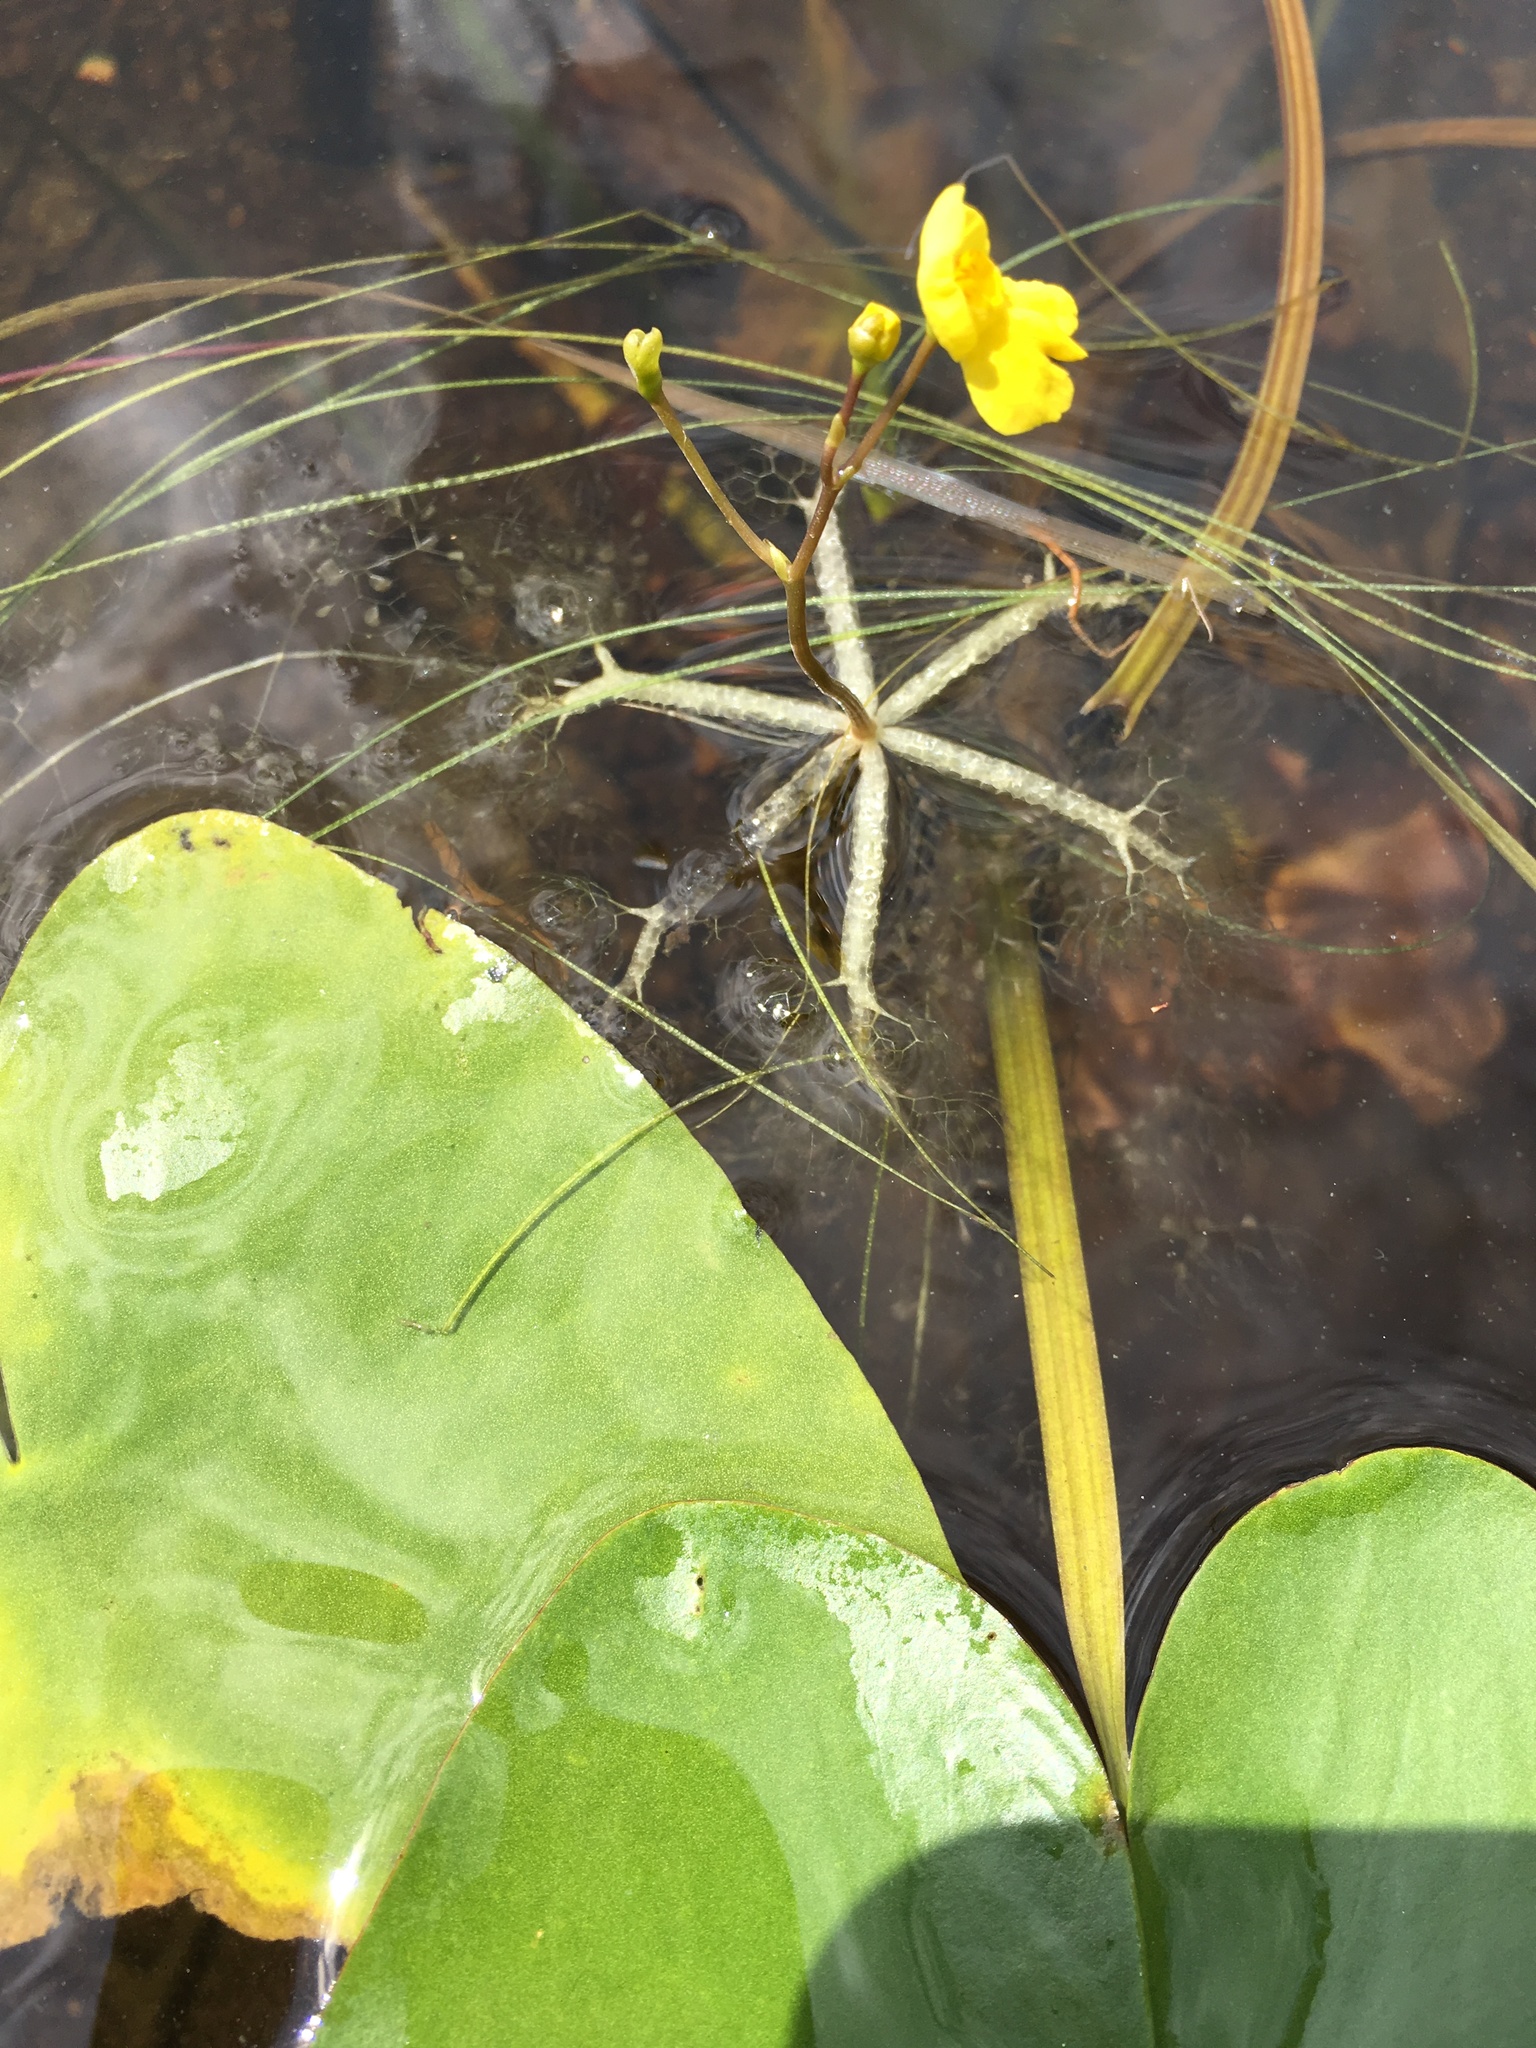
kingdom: Plantae
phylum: Tracheophyta
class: Magnoliopsida
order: Lamiales
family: Lentibulariaceae
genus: Utricularia
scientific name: Utricularia radiata
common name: Floating bladderwort
